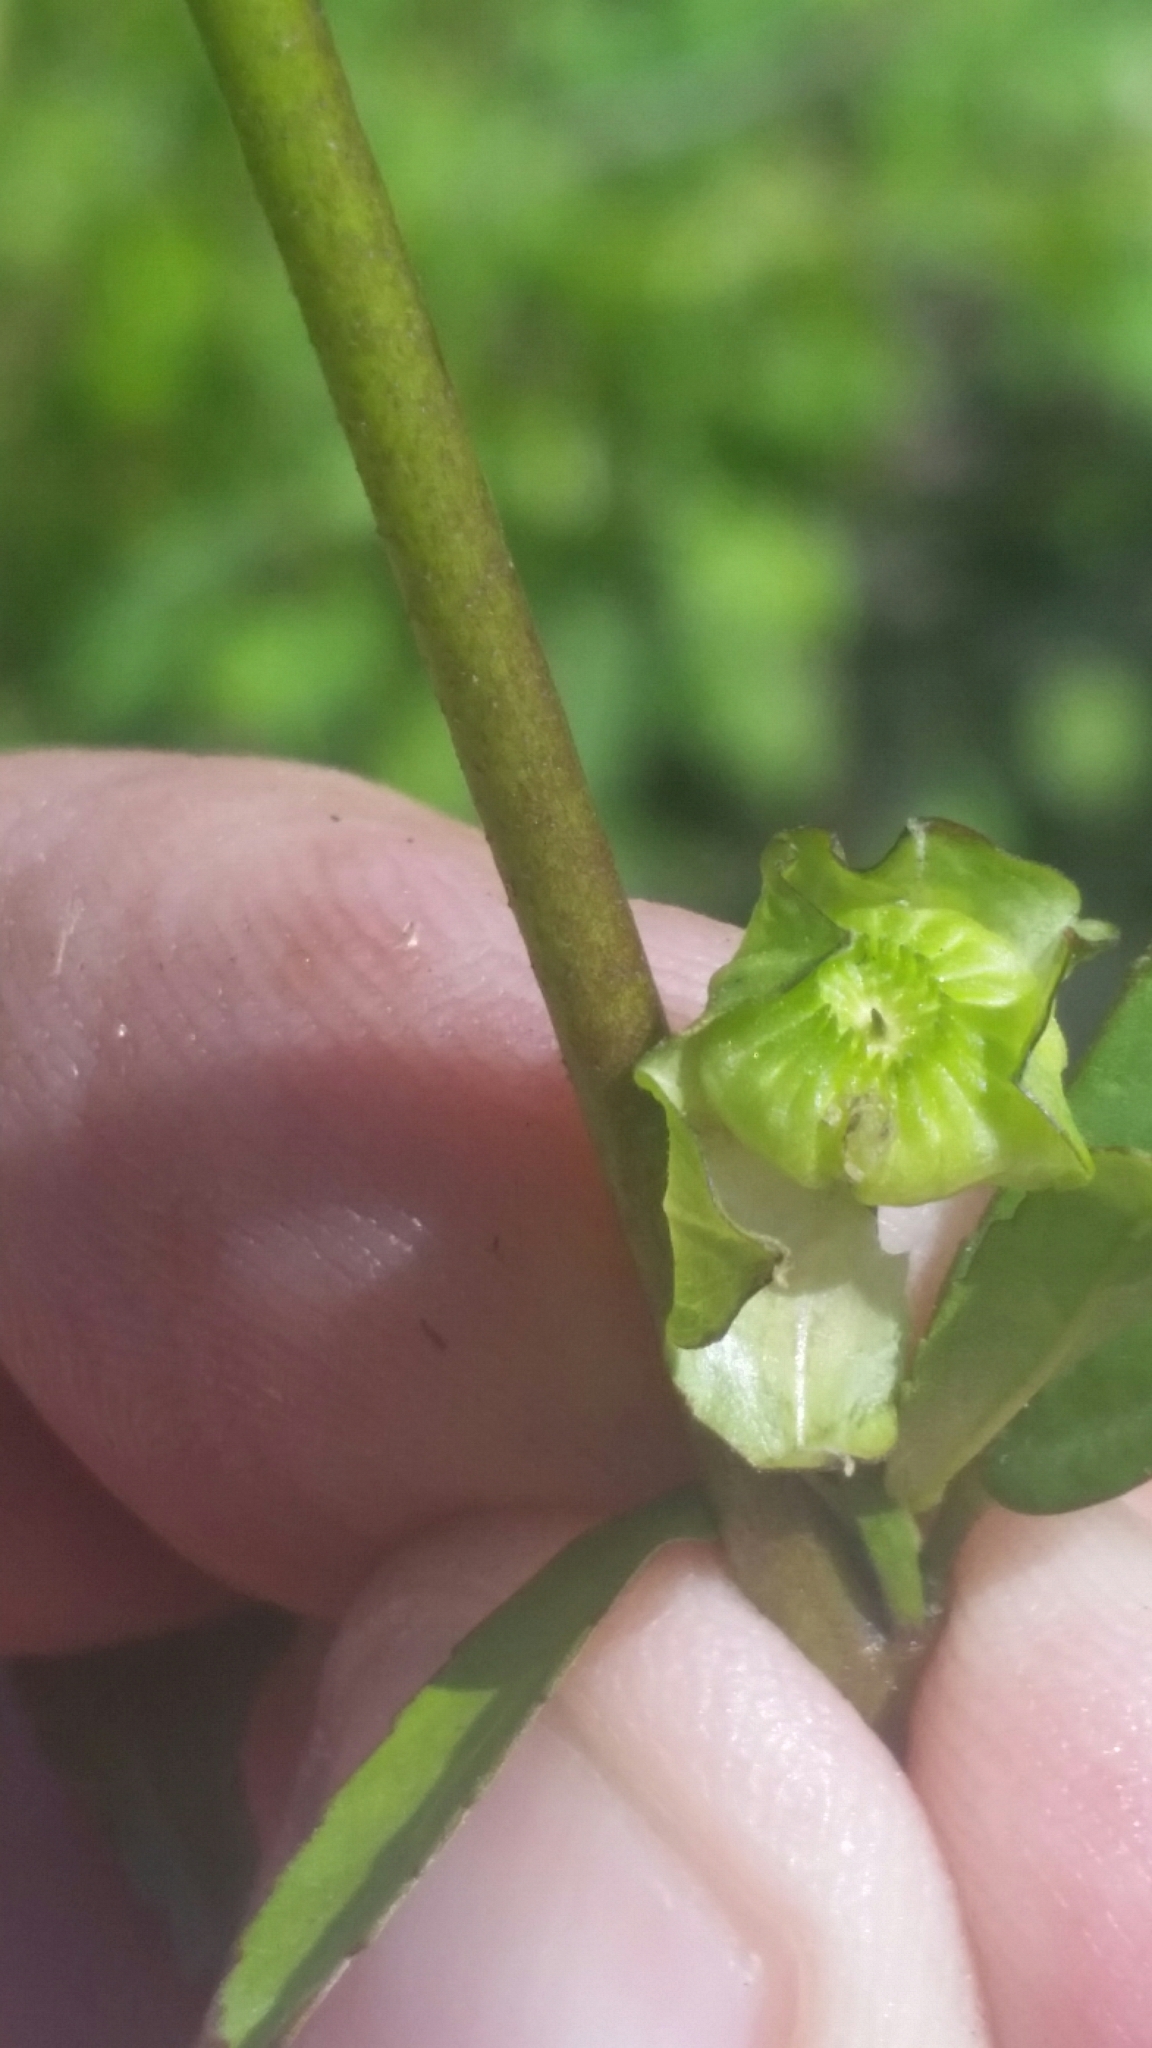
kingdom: Plantae
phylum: Tracheophyta
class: Magnoliopsida
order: Malvales
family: Malvaceae
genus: Sida
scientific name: Sida elliottii
